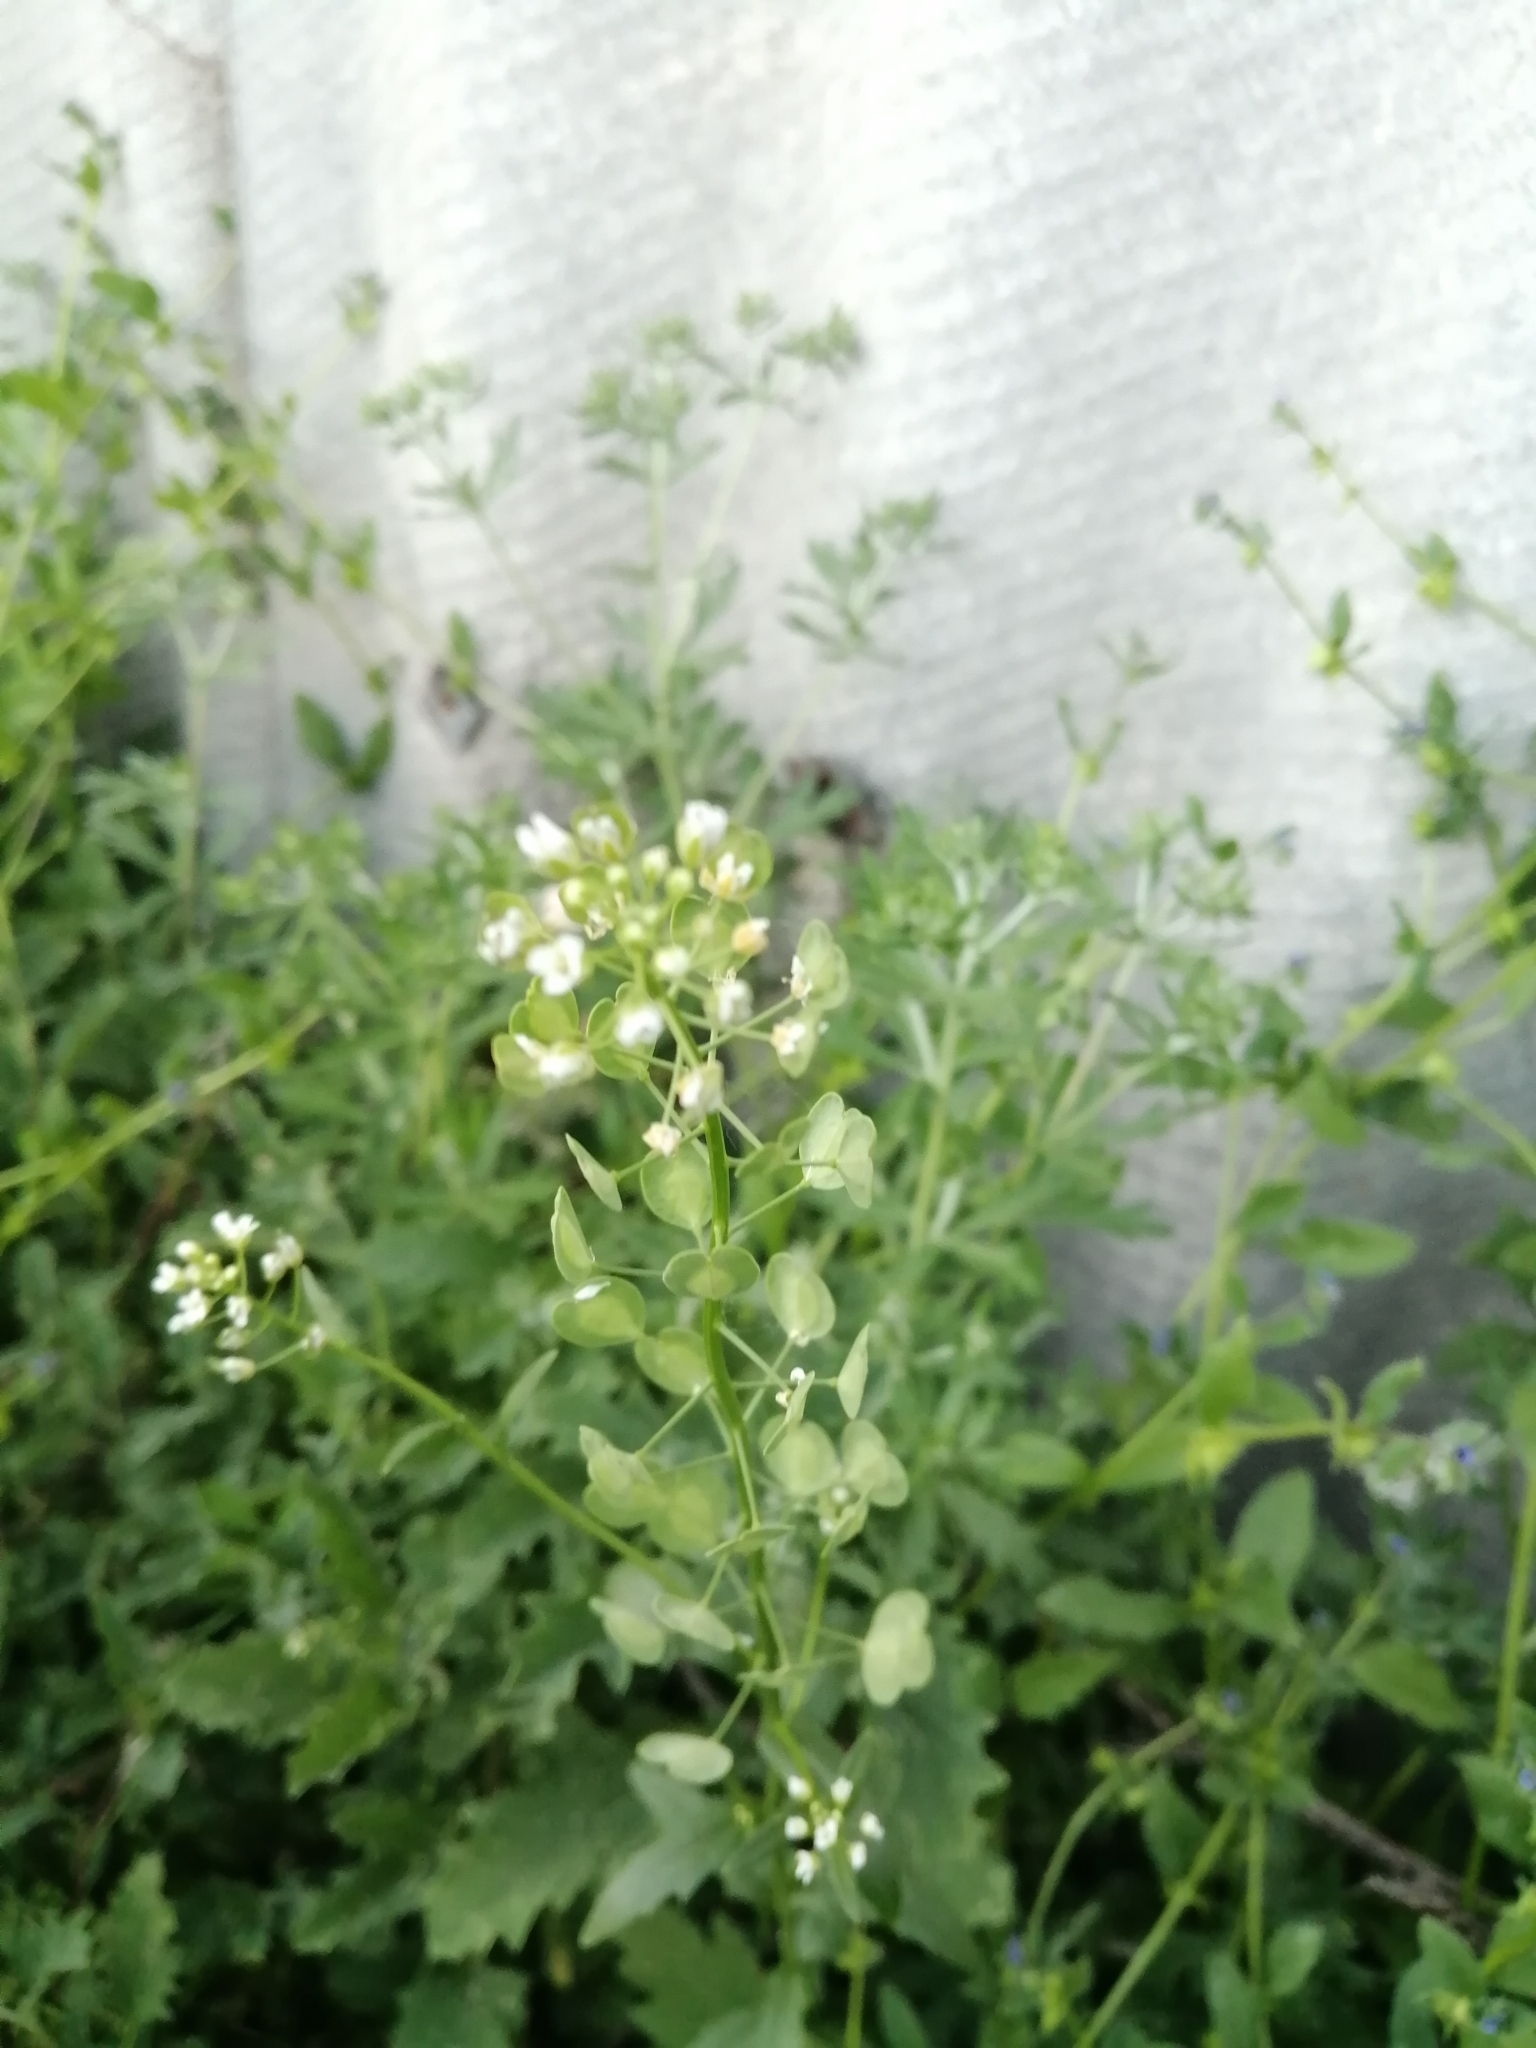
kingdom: Plantae
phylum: Tracheophyta
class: Magnoliopsida
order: Brassicales
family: Brassicaceae
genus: Thlaspi
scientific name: Thlaspi arvense
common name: Field pennycress
